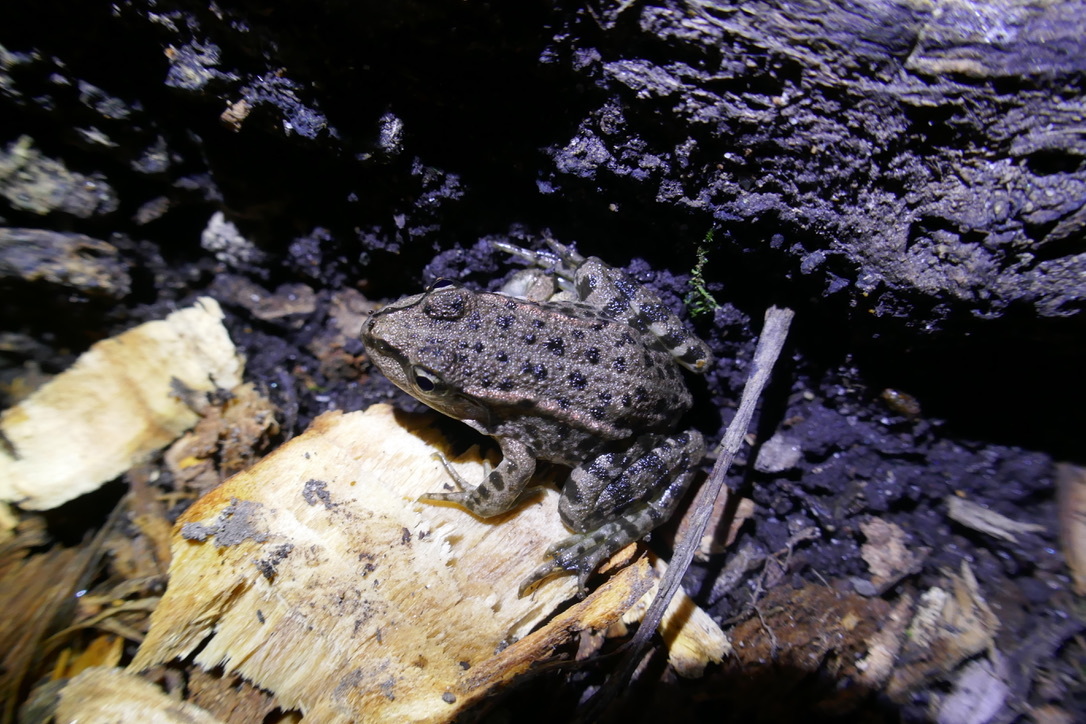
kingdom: Animalia
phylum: Chordata
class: Amphibia
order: Anura
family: Ranidae
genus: Pelophylax
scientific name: Pelophylax
